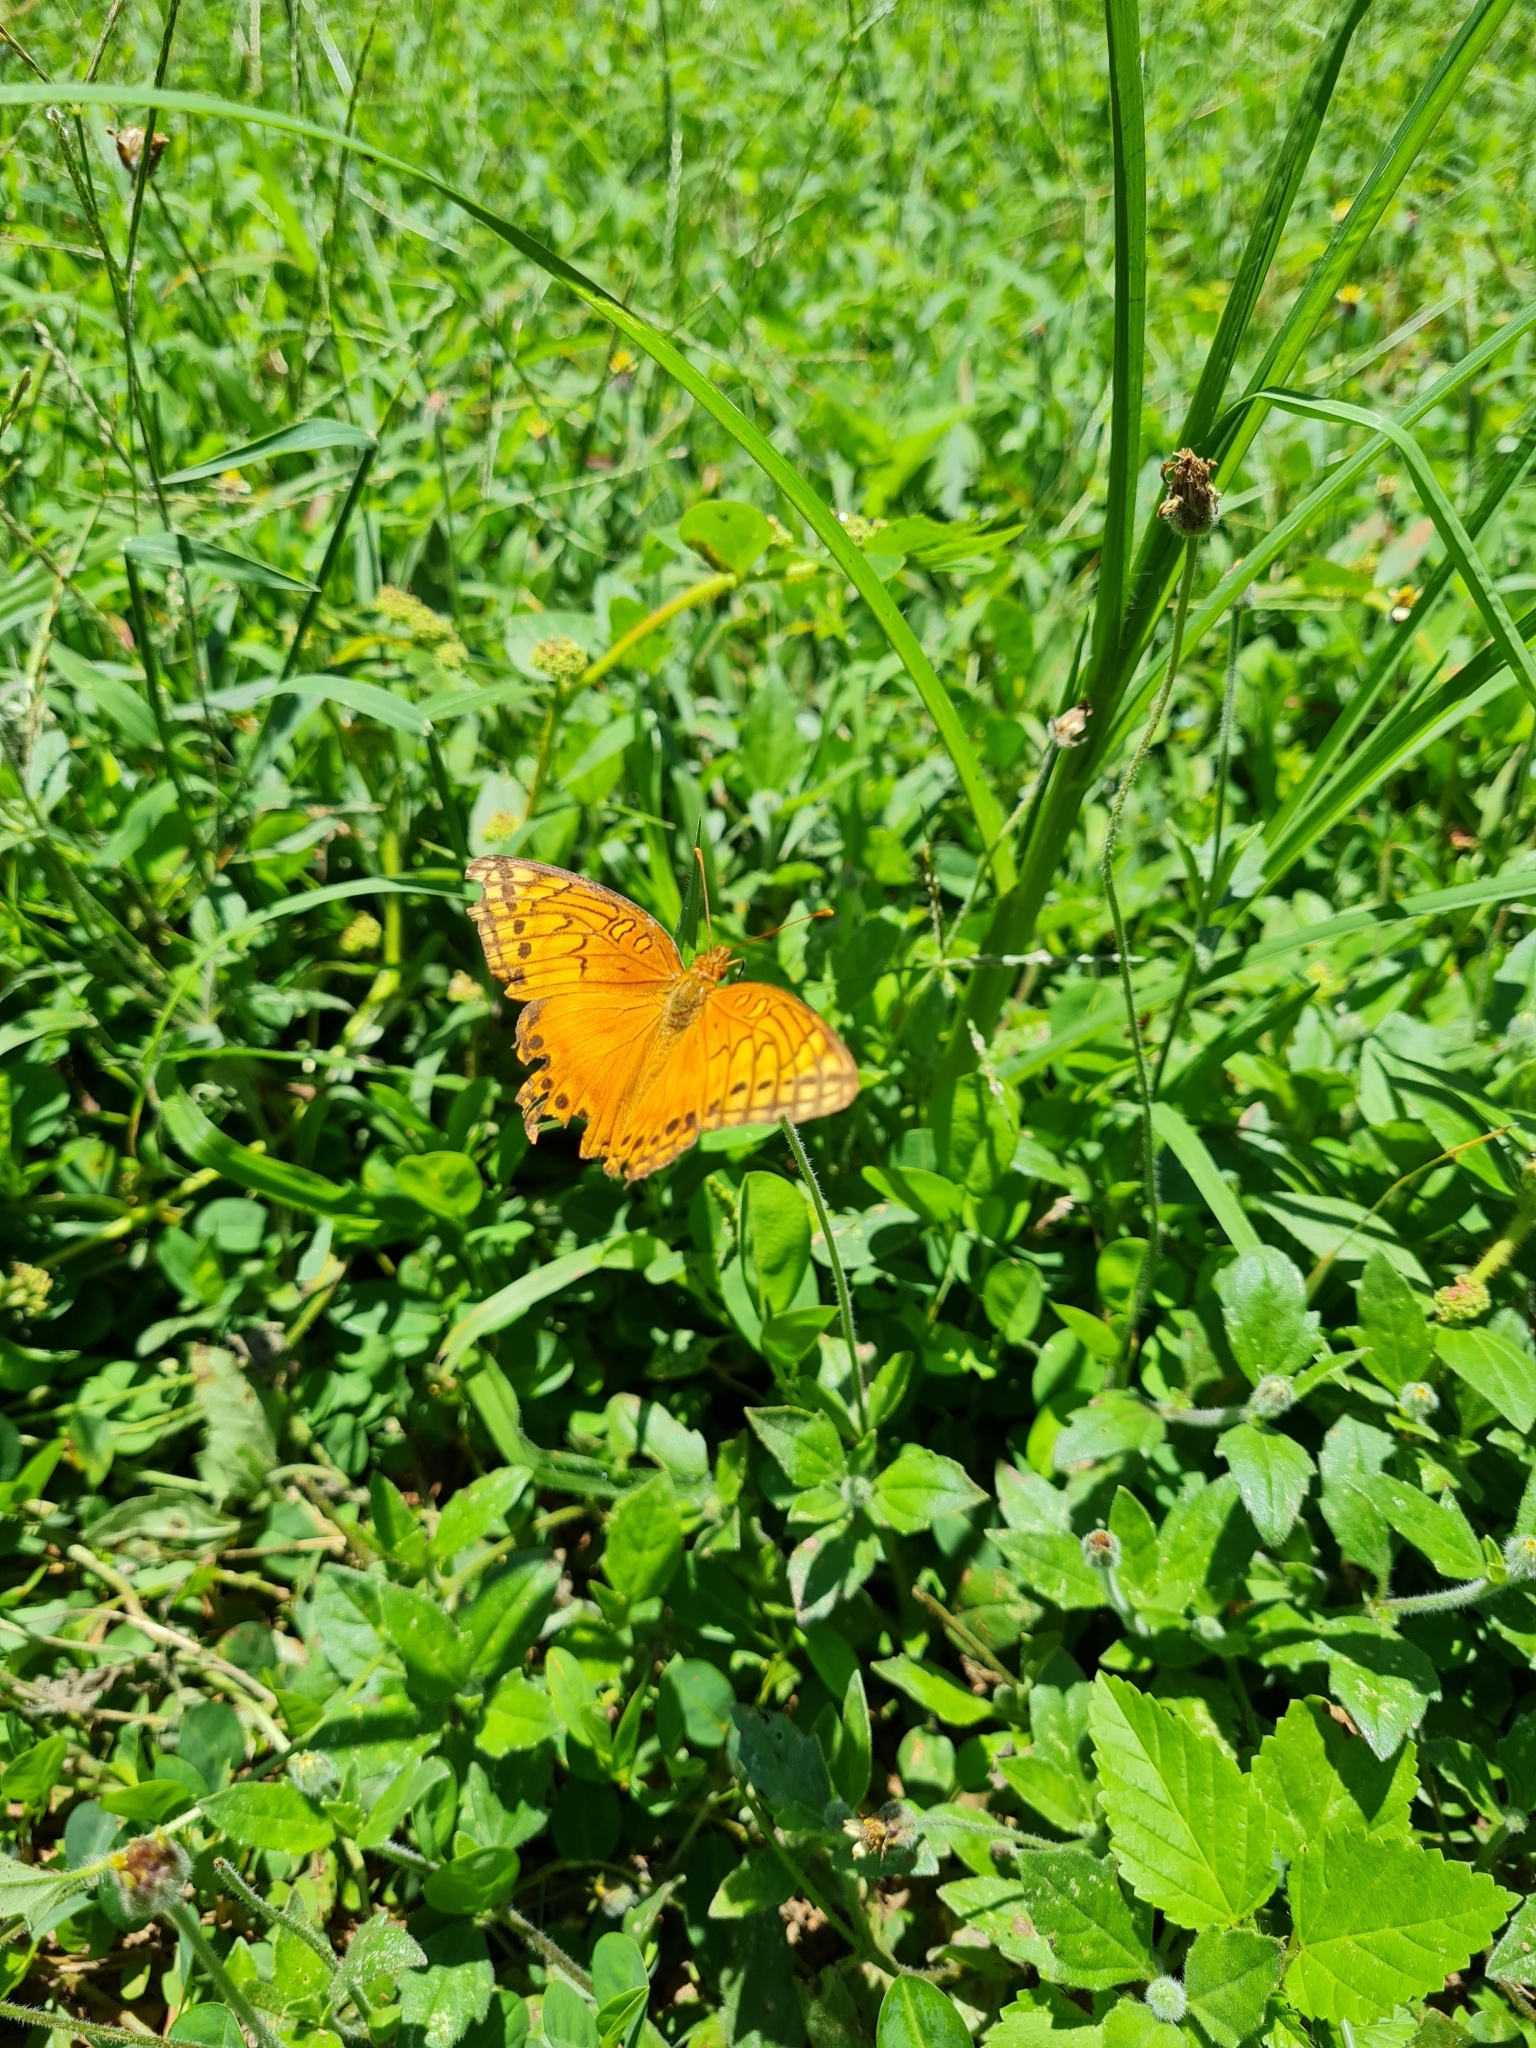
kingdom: Animalia
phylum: Arthropoda
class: Insecta
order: Lepidoptera
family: Nymphalidae
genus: Euptoieta
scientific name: Euptoieta hegesia
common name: Mexican fritillary
